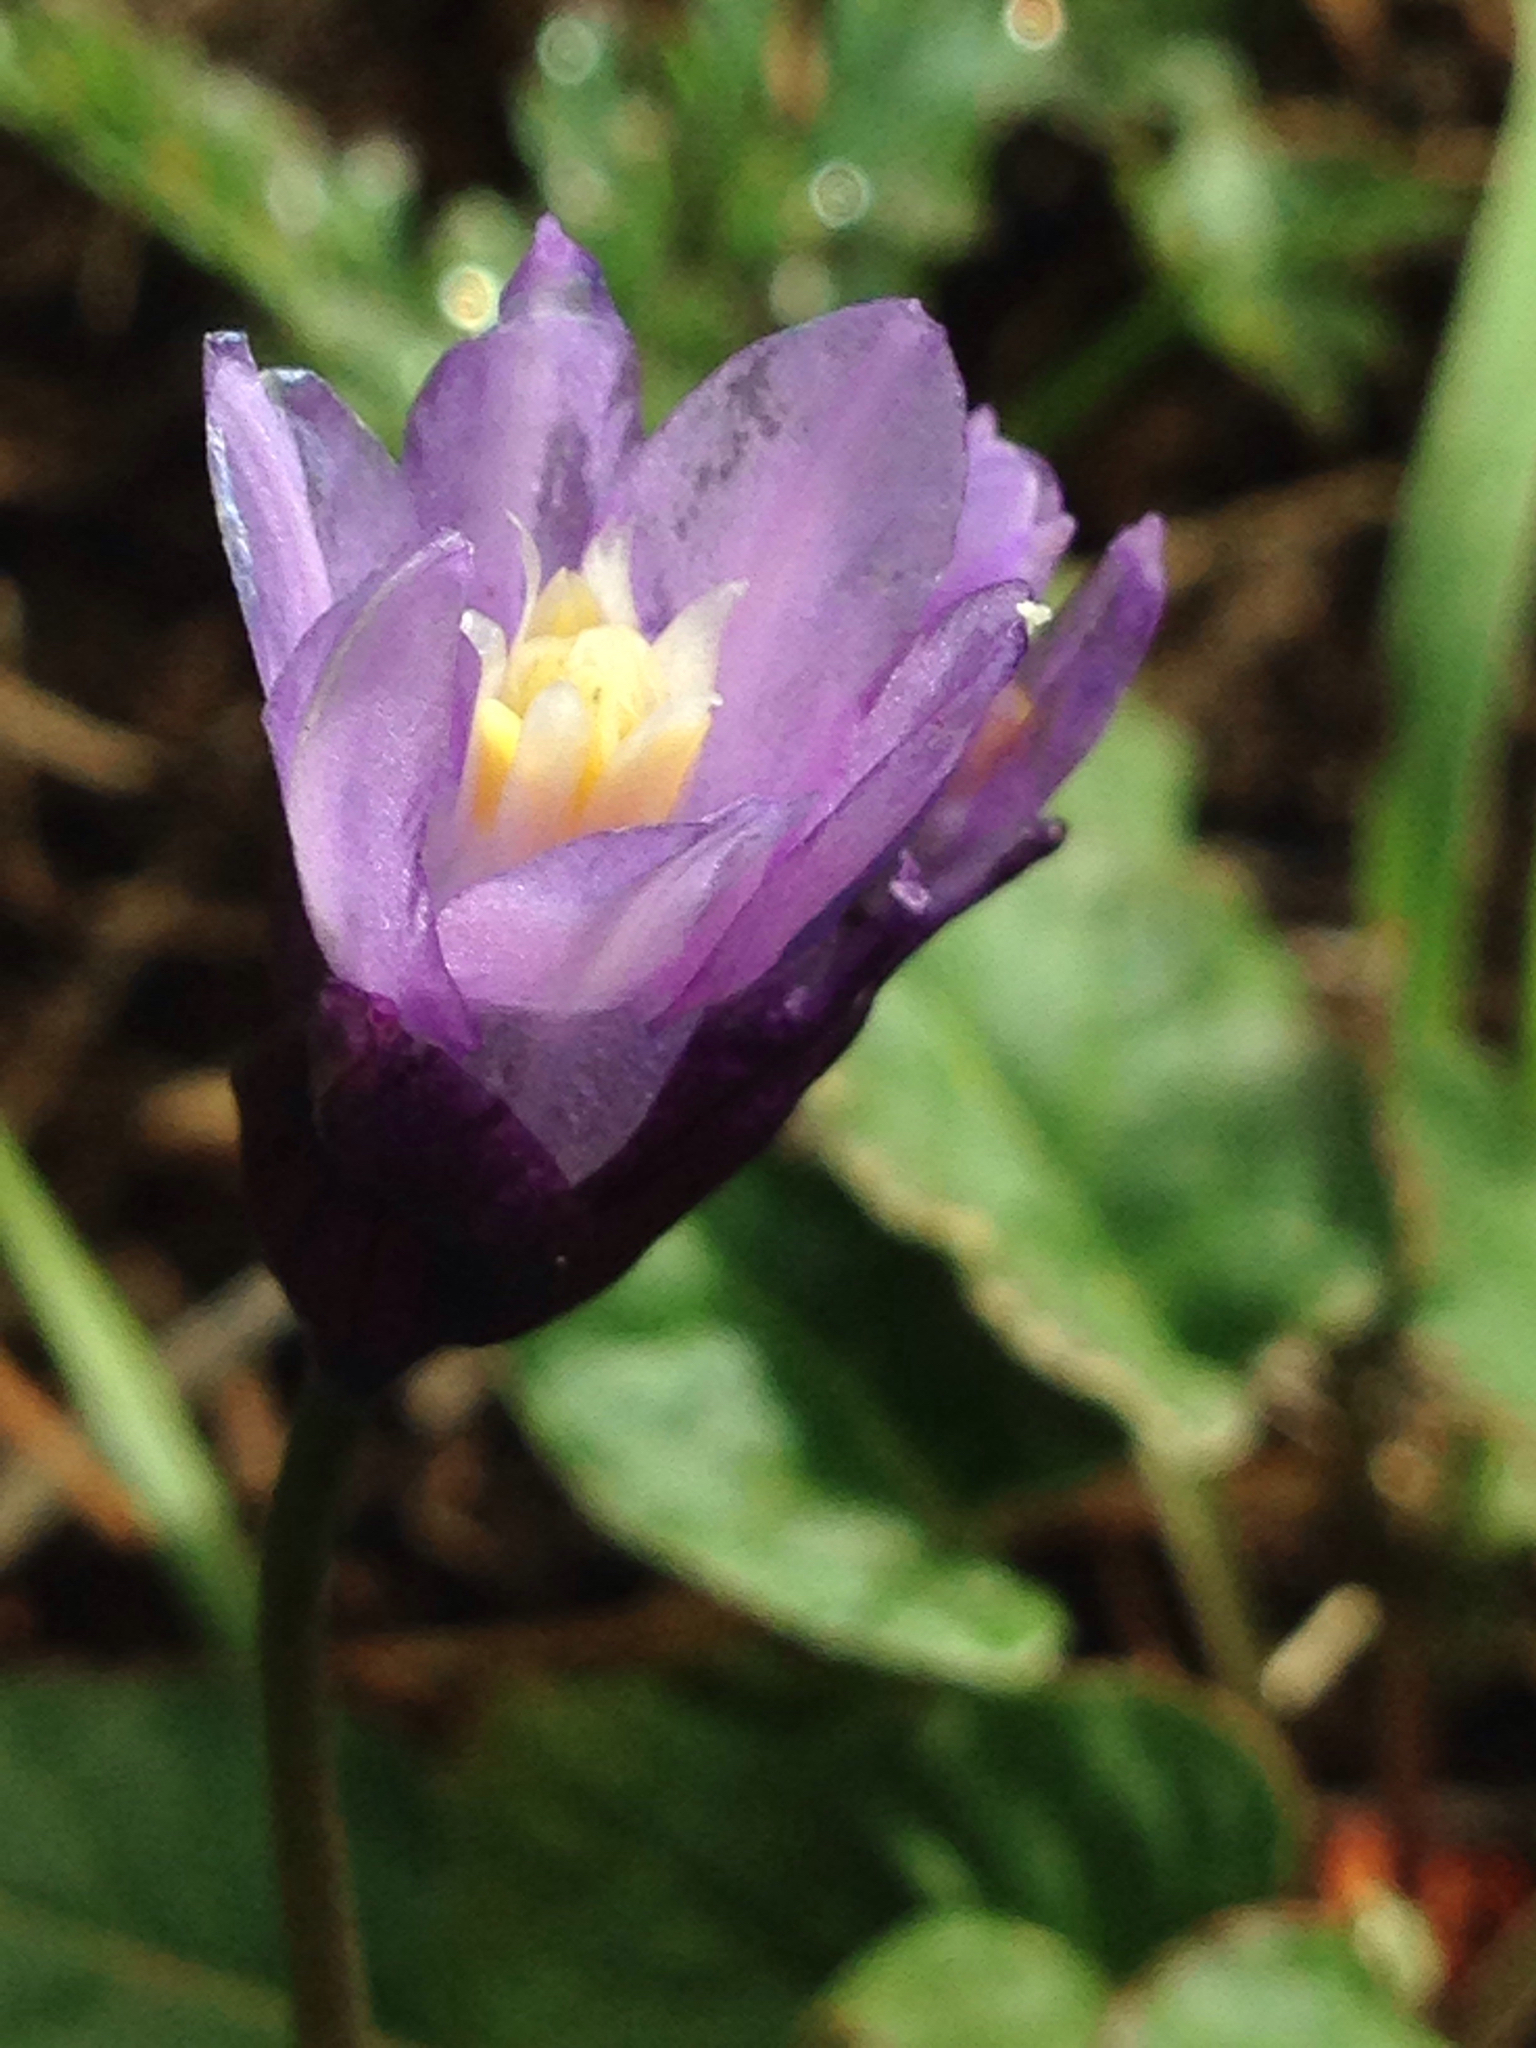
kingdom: Plantae
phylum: Tracheophyta
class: Liliopsida
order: Asparagales
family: Asparagaceae
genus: Dipterostemon
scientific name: Dipterostemon capitatus
